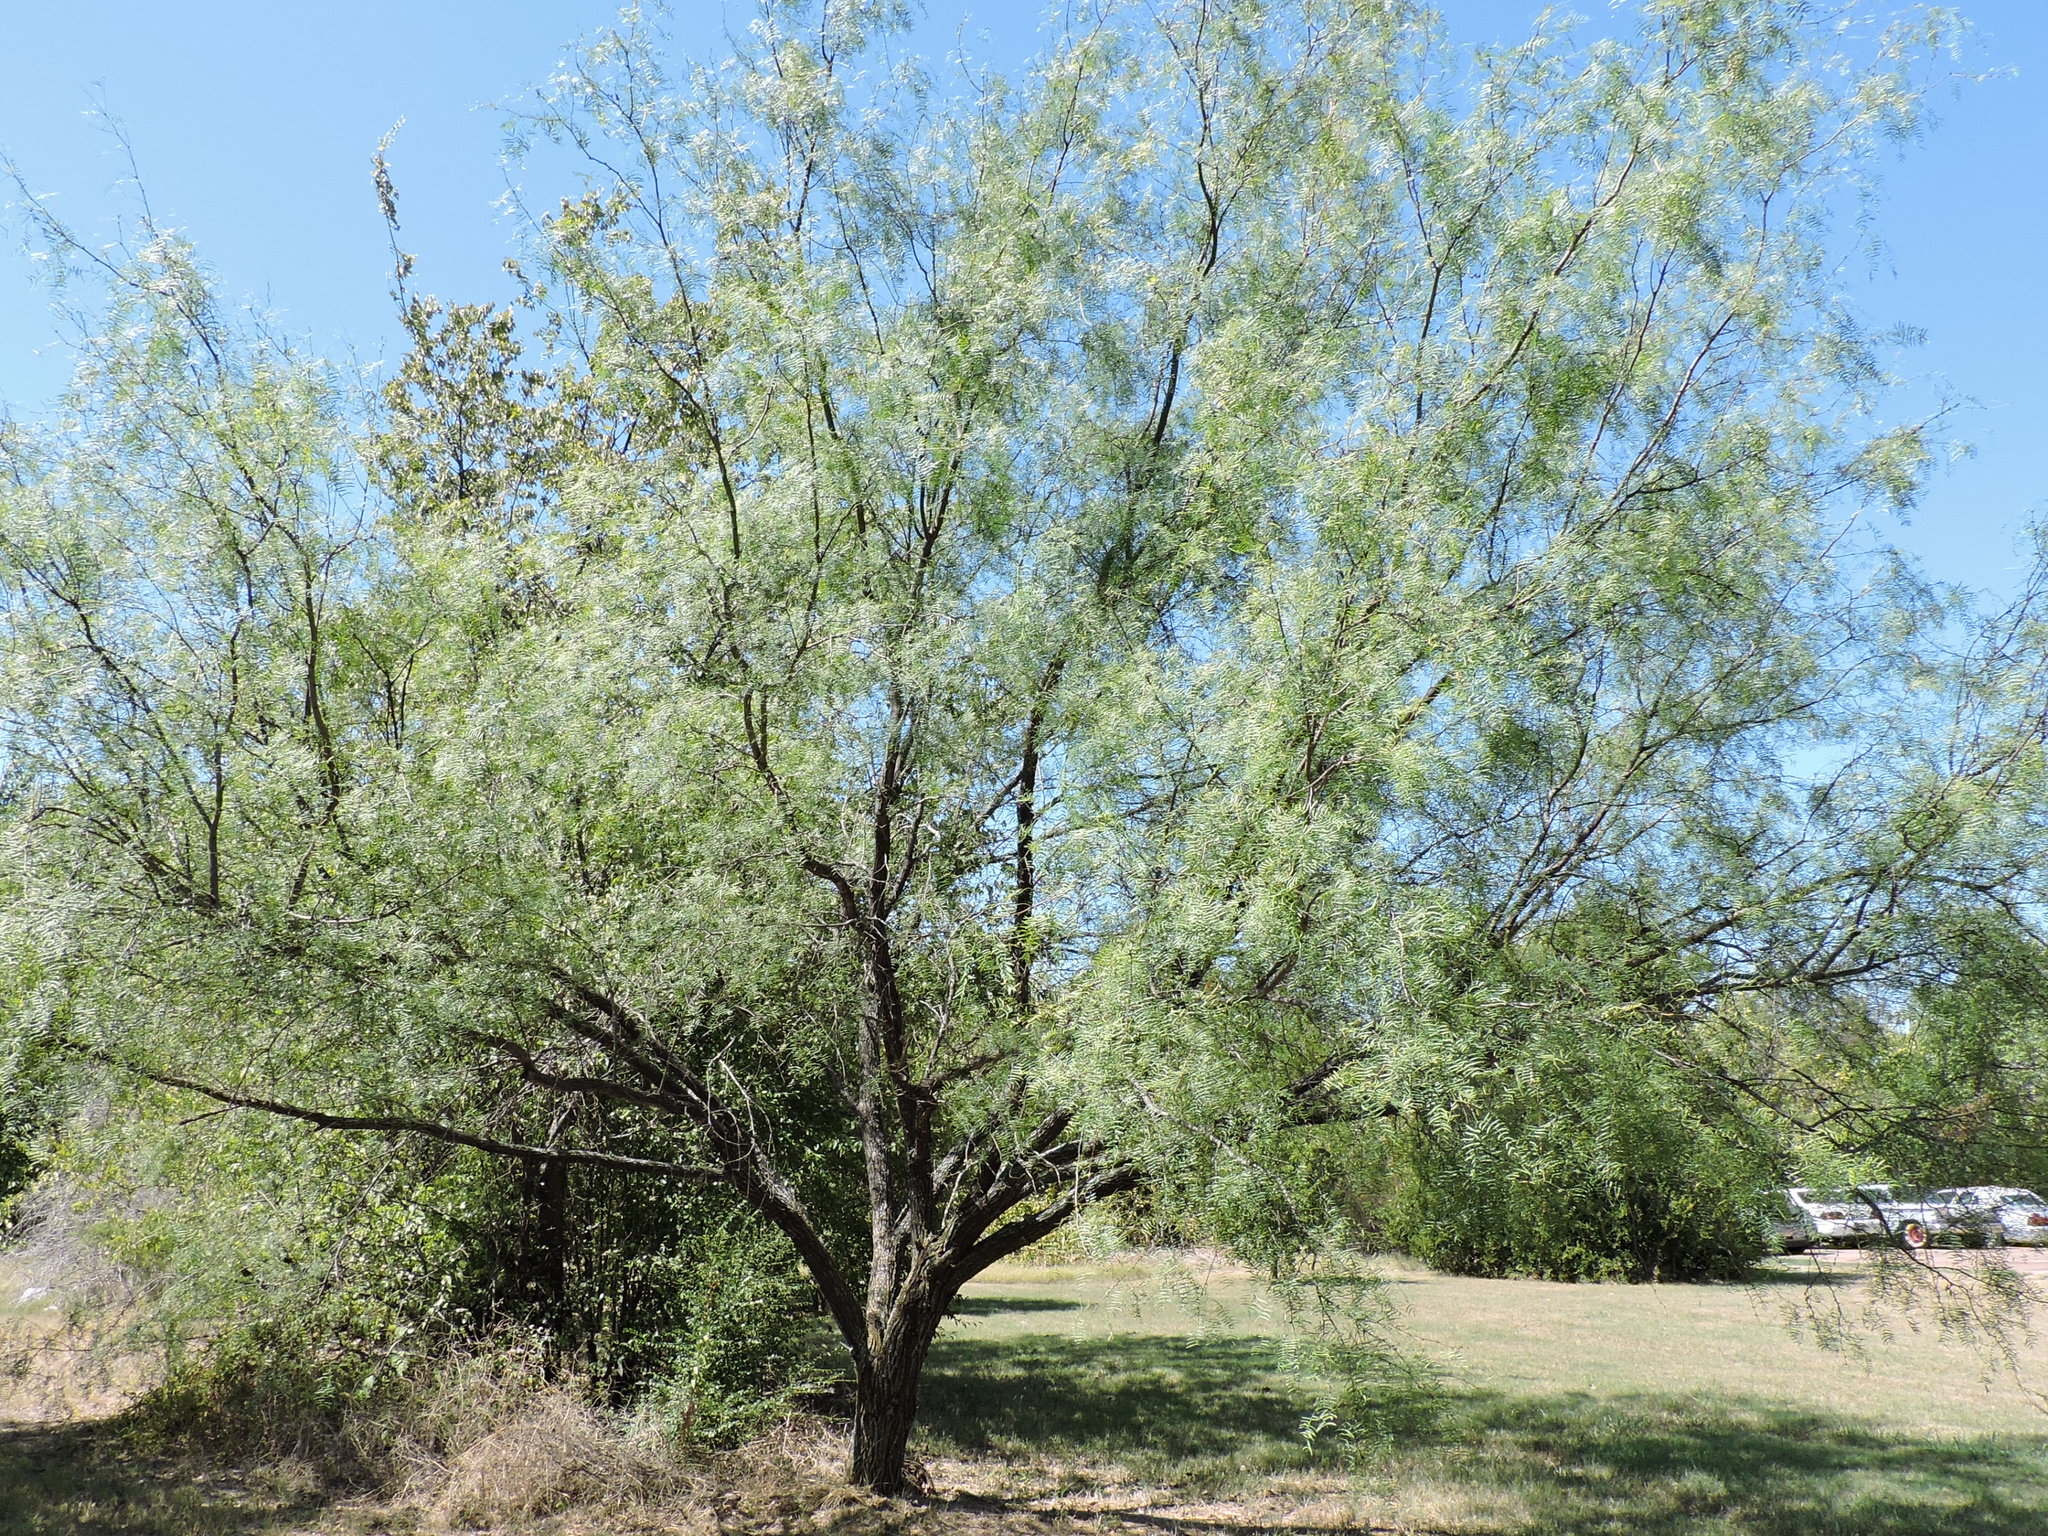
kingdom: Plantae
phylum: Tracheophyta
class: Magnoliopsida
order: Fabales
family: Fabaceae
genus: Prosopis
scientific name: Prosopis glandulosa
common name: Honey mesquite
